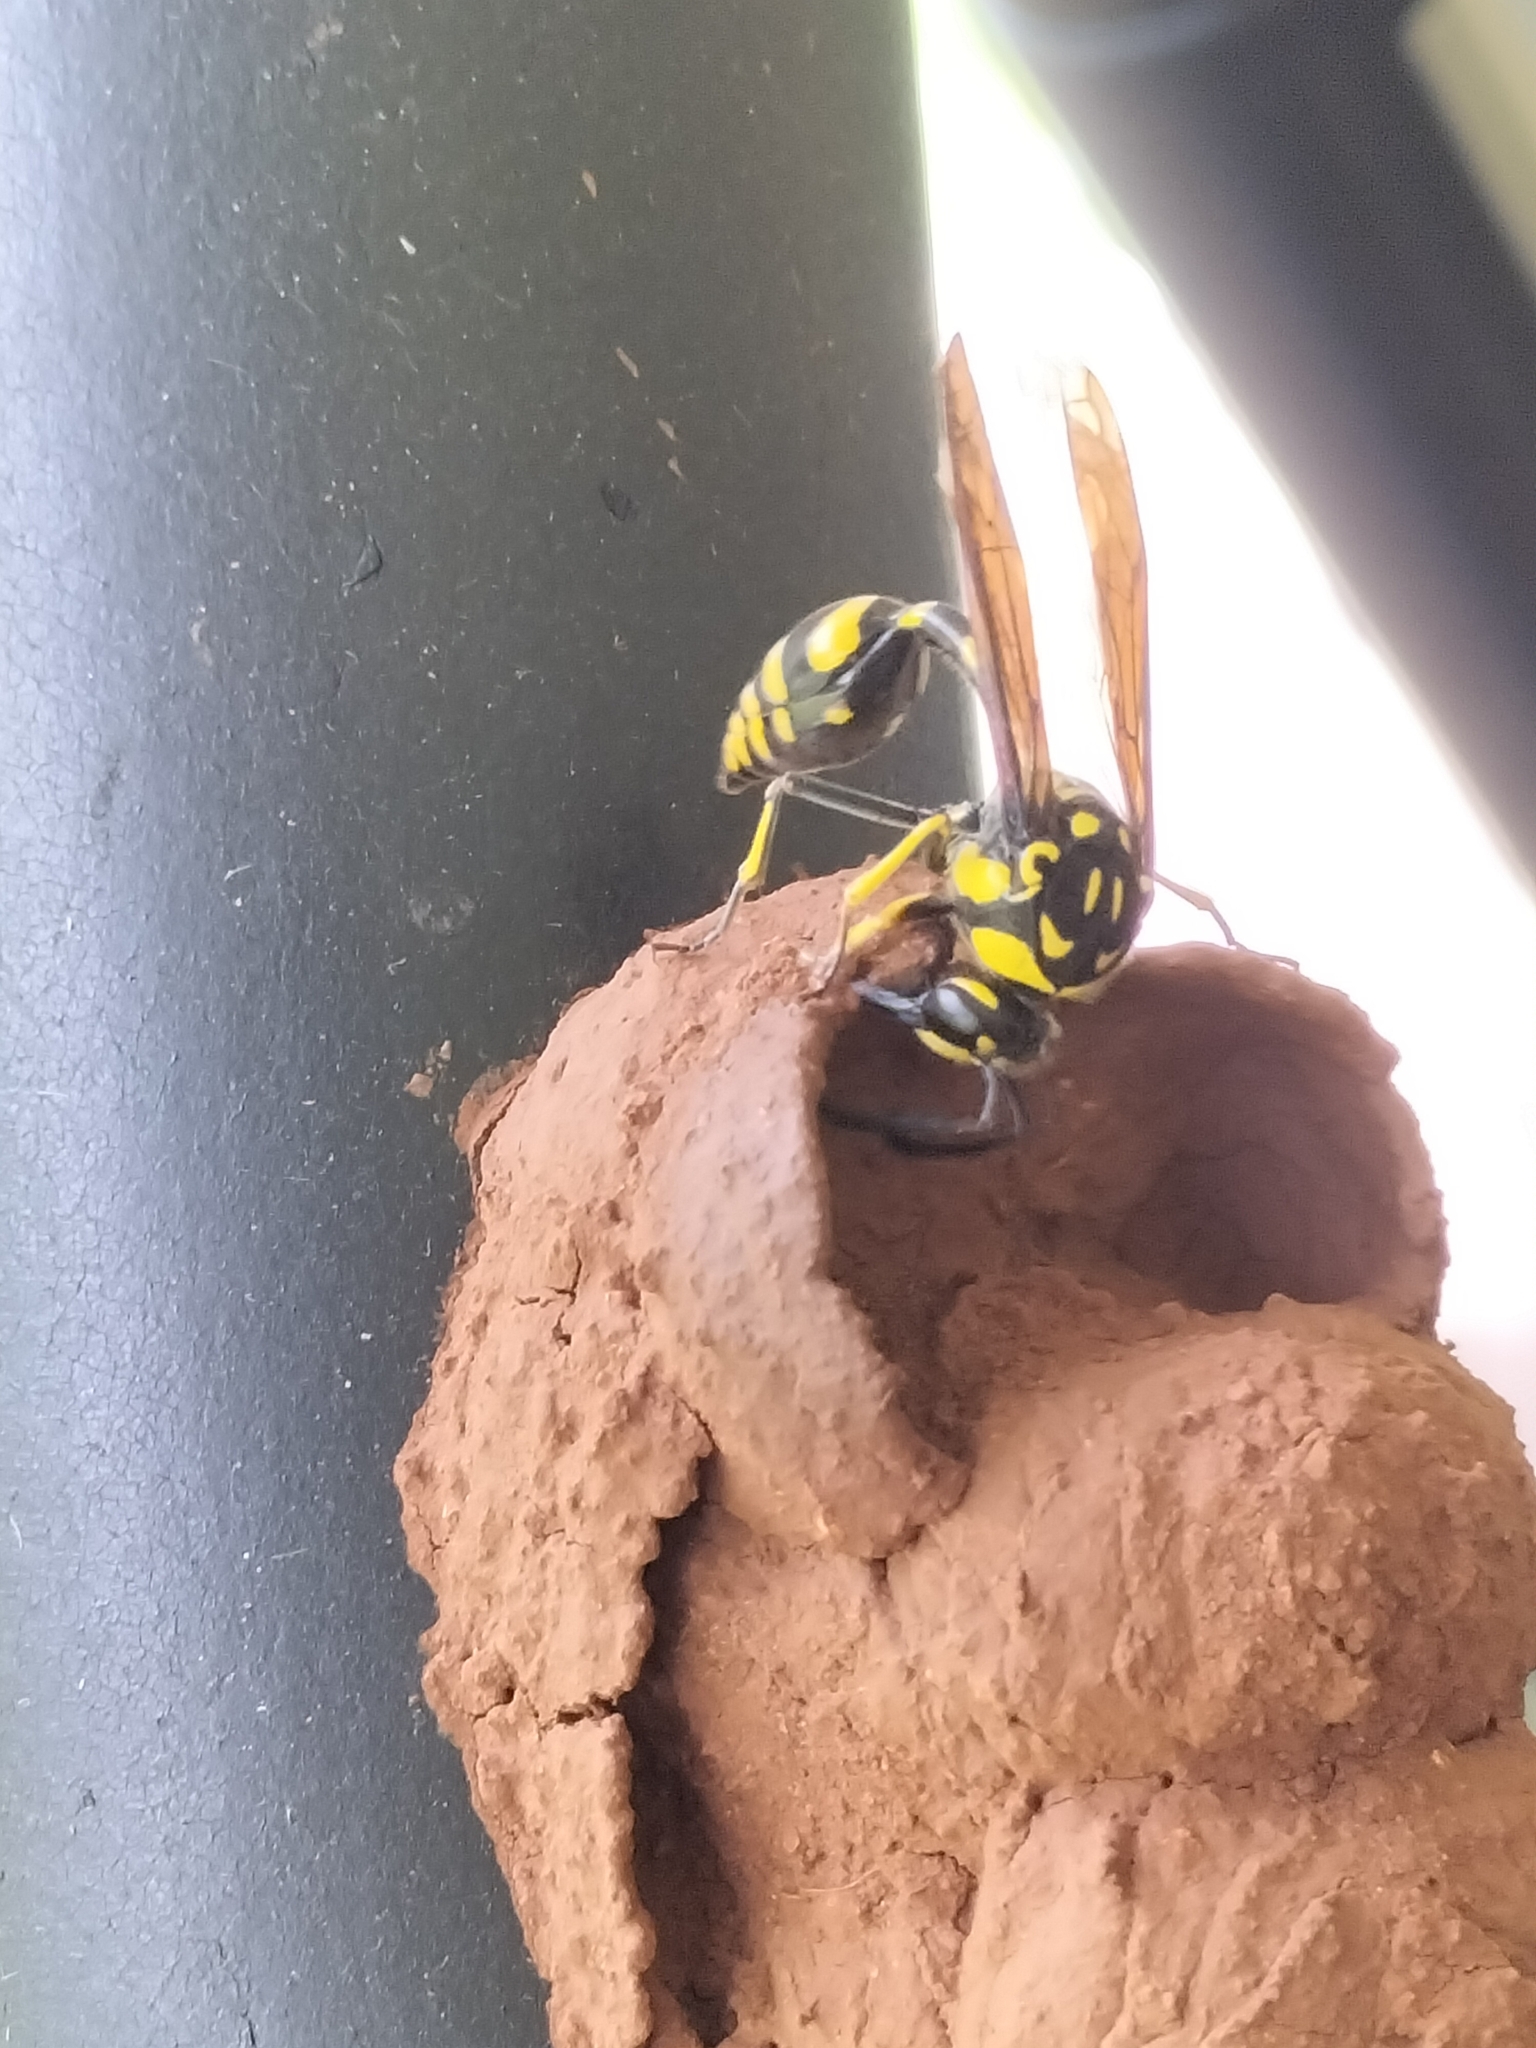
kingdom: Animalia
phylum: Arthropoda
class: Insecta
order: Hymenoptera
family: Eumenidae
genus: Phimenes
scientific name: Phimenes arcuatus
